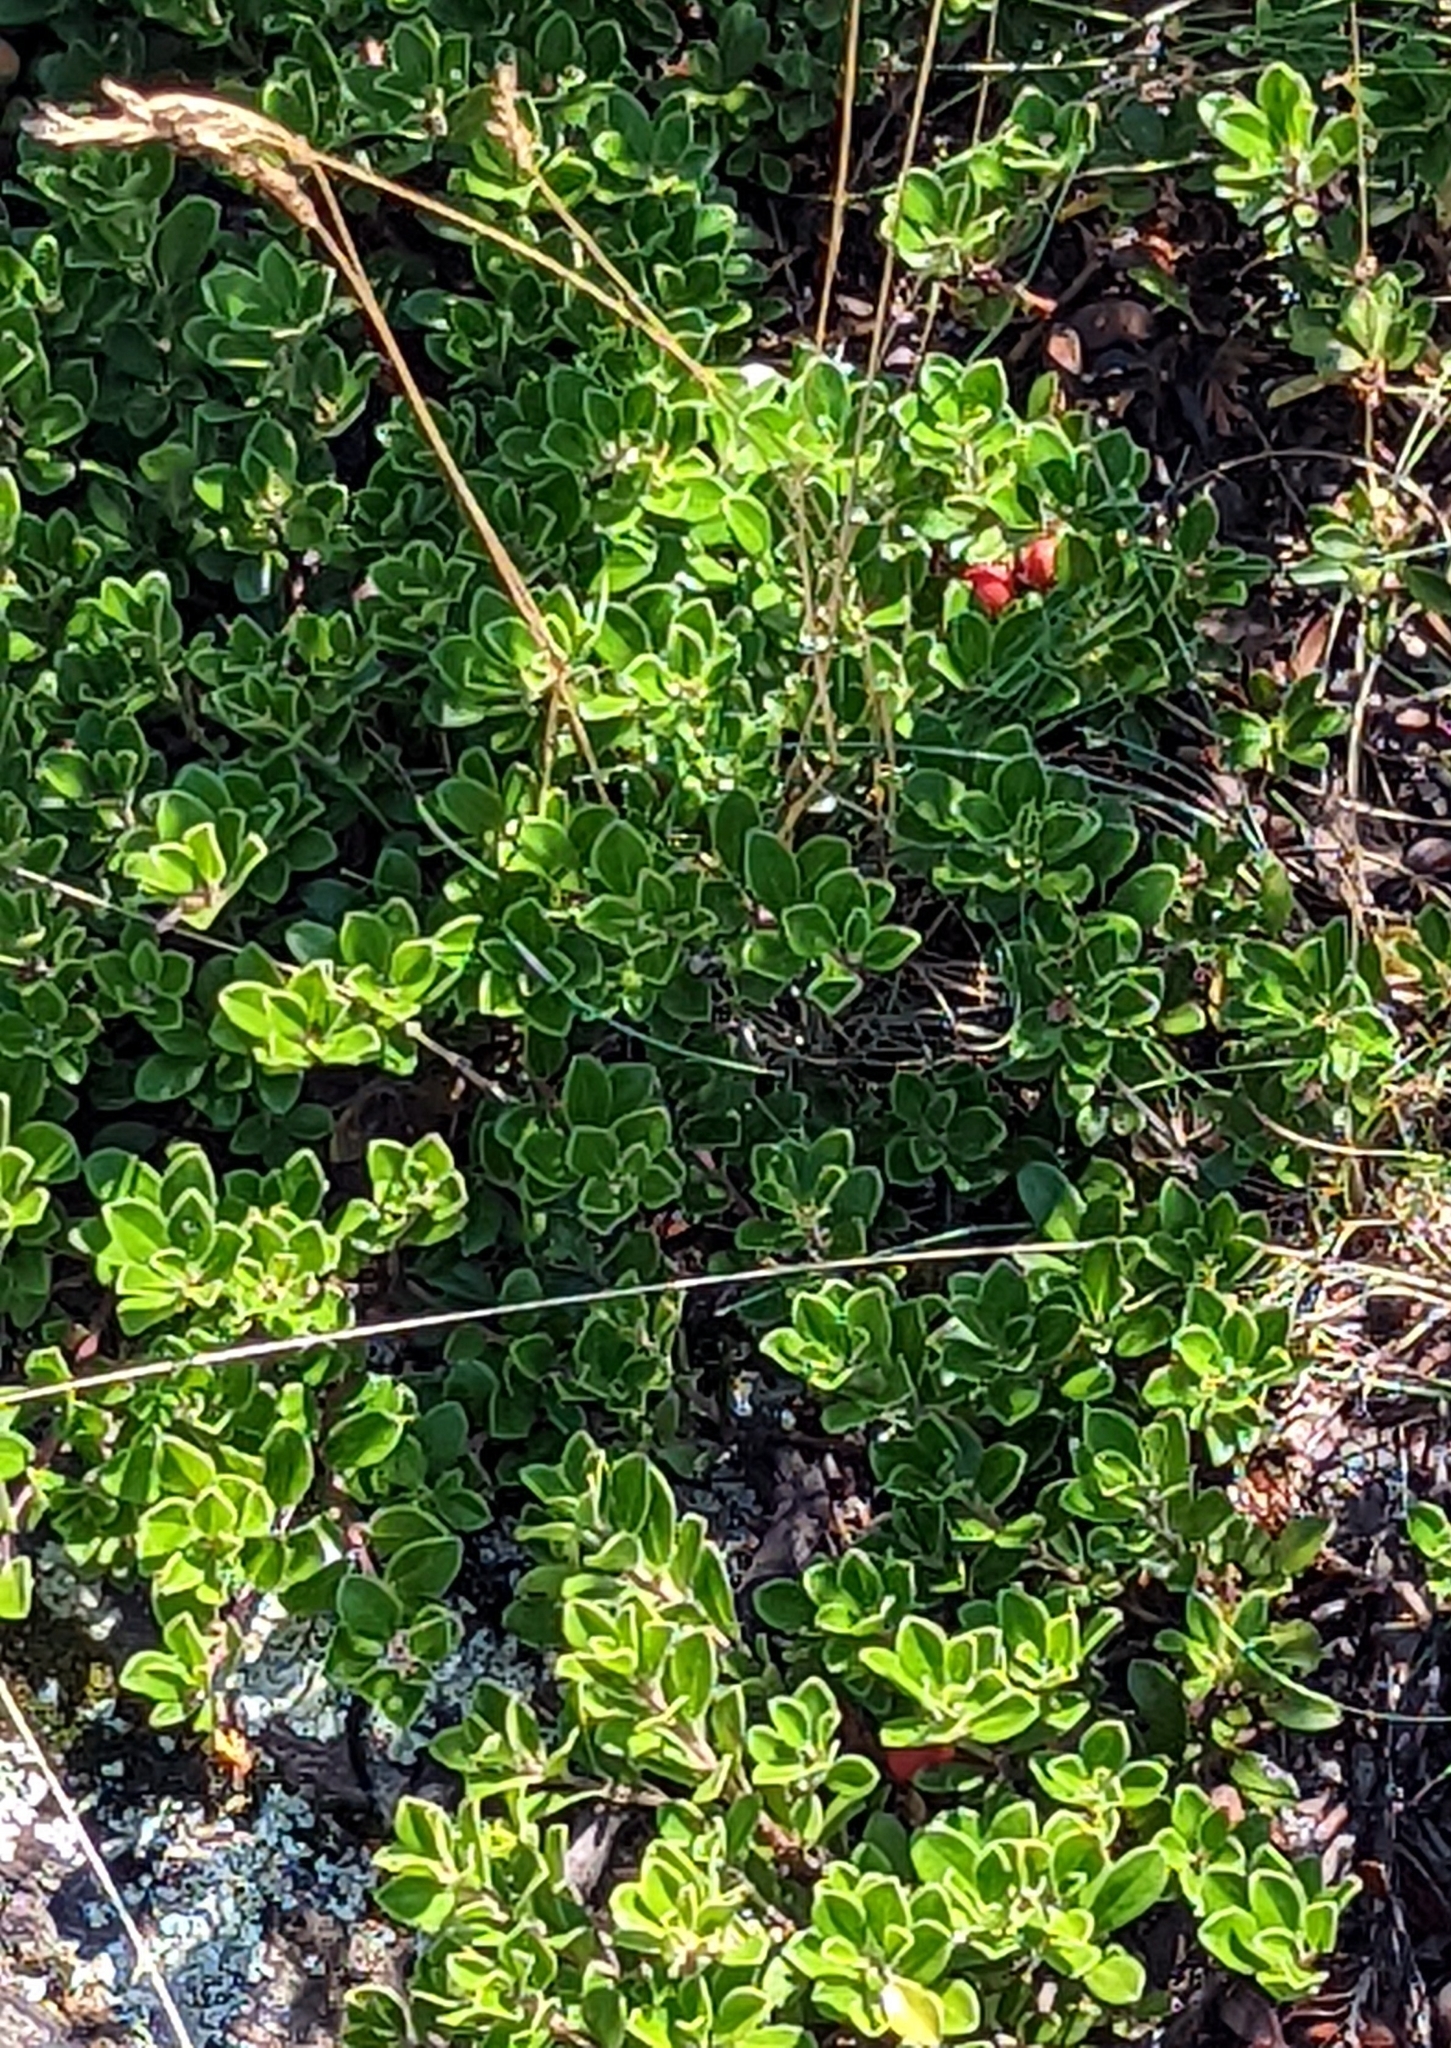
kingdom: Plantae
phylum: Tracheophyta
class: Magnoliopsida
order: Ericales
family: Ericaceae
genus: Arctostaphylos
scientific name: Arctostaphylos uva-ursi
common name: Bearberry
